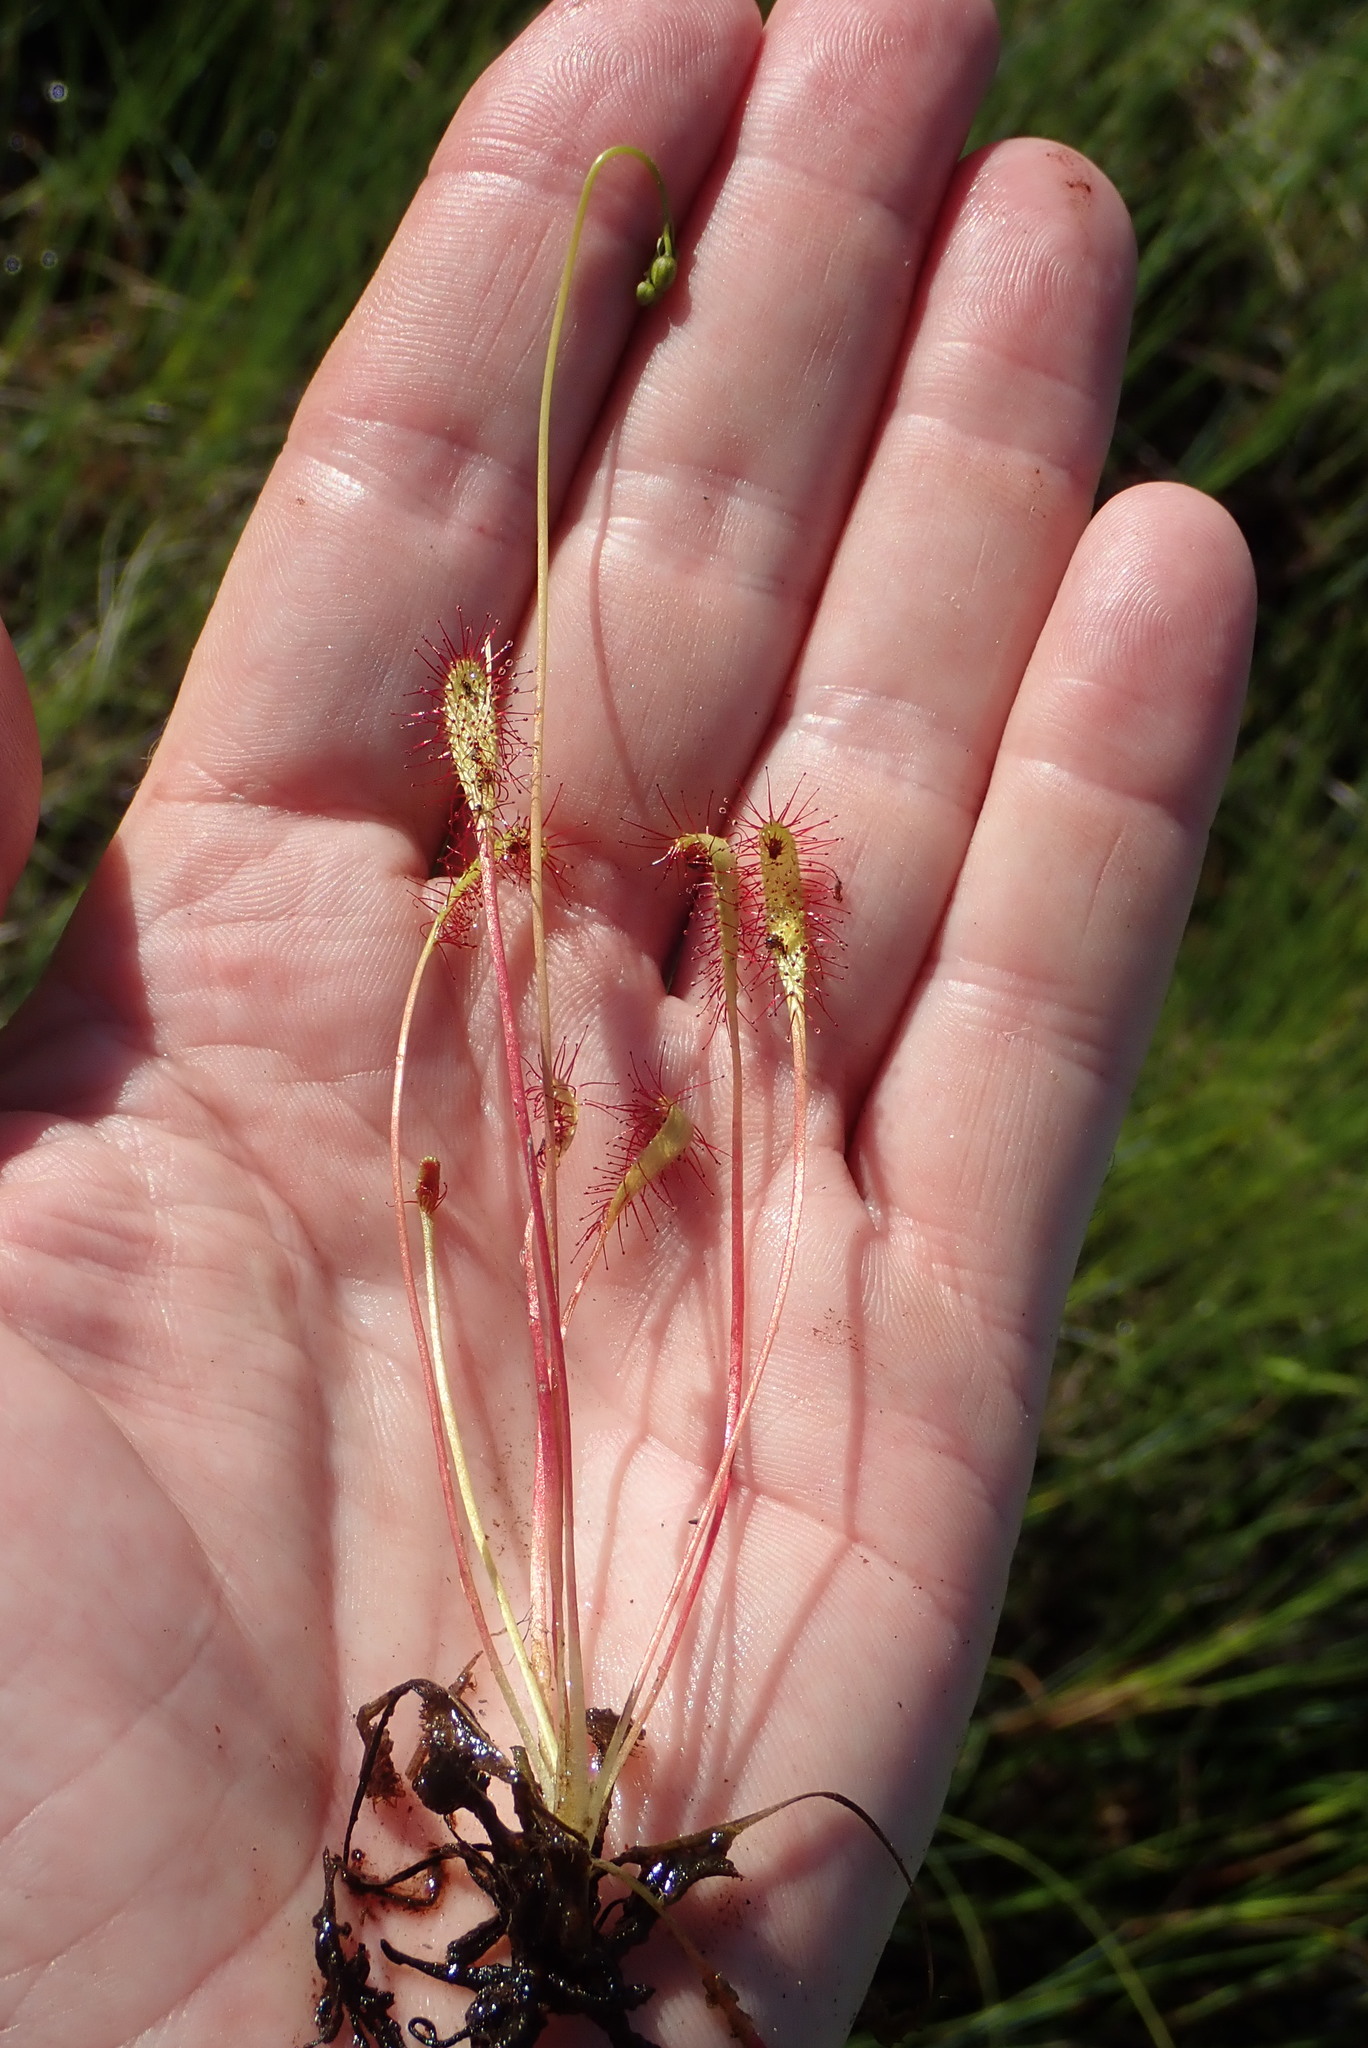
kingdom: Plantae
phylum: Tracheophyta
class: Magnoliopsida
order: Caryophyllales
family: Droseraceae
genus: Drosera
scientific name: Drosera anglica
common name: Great sundew
